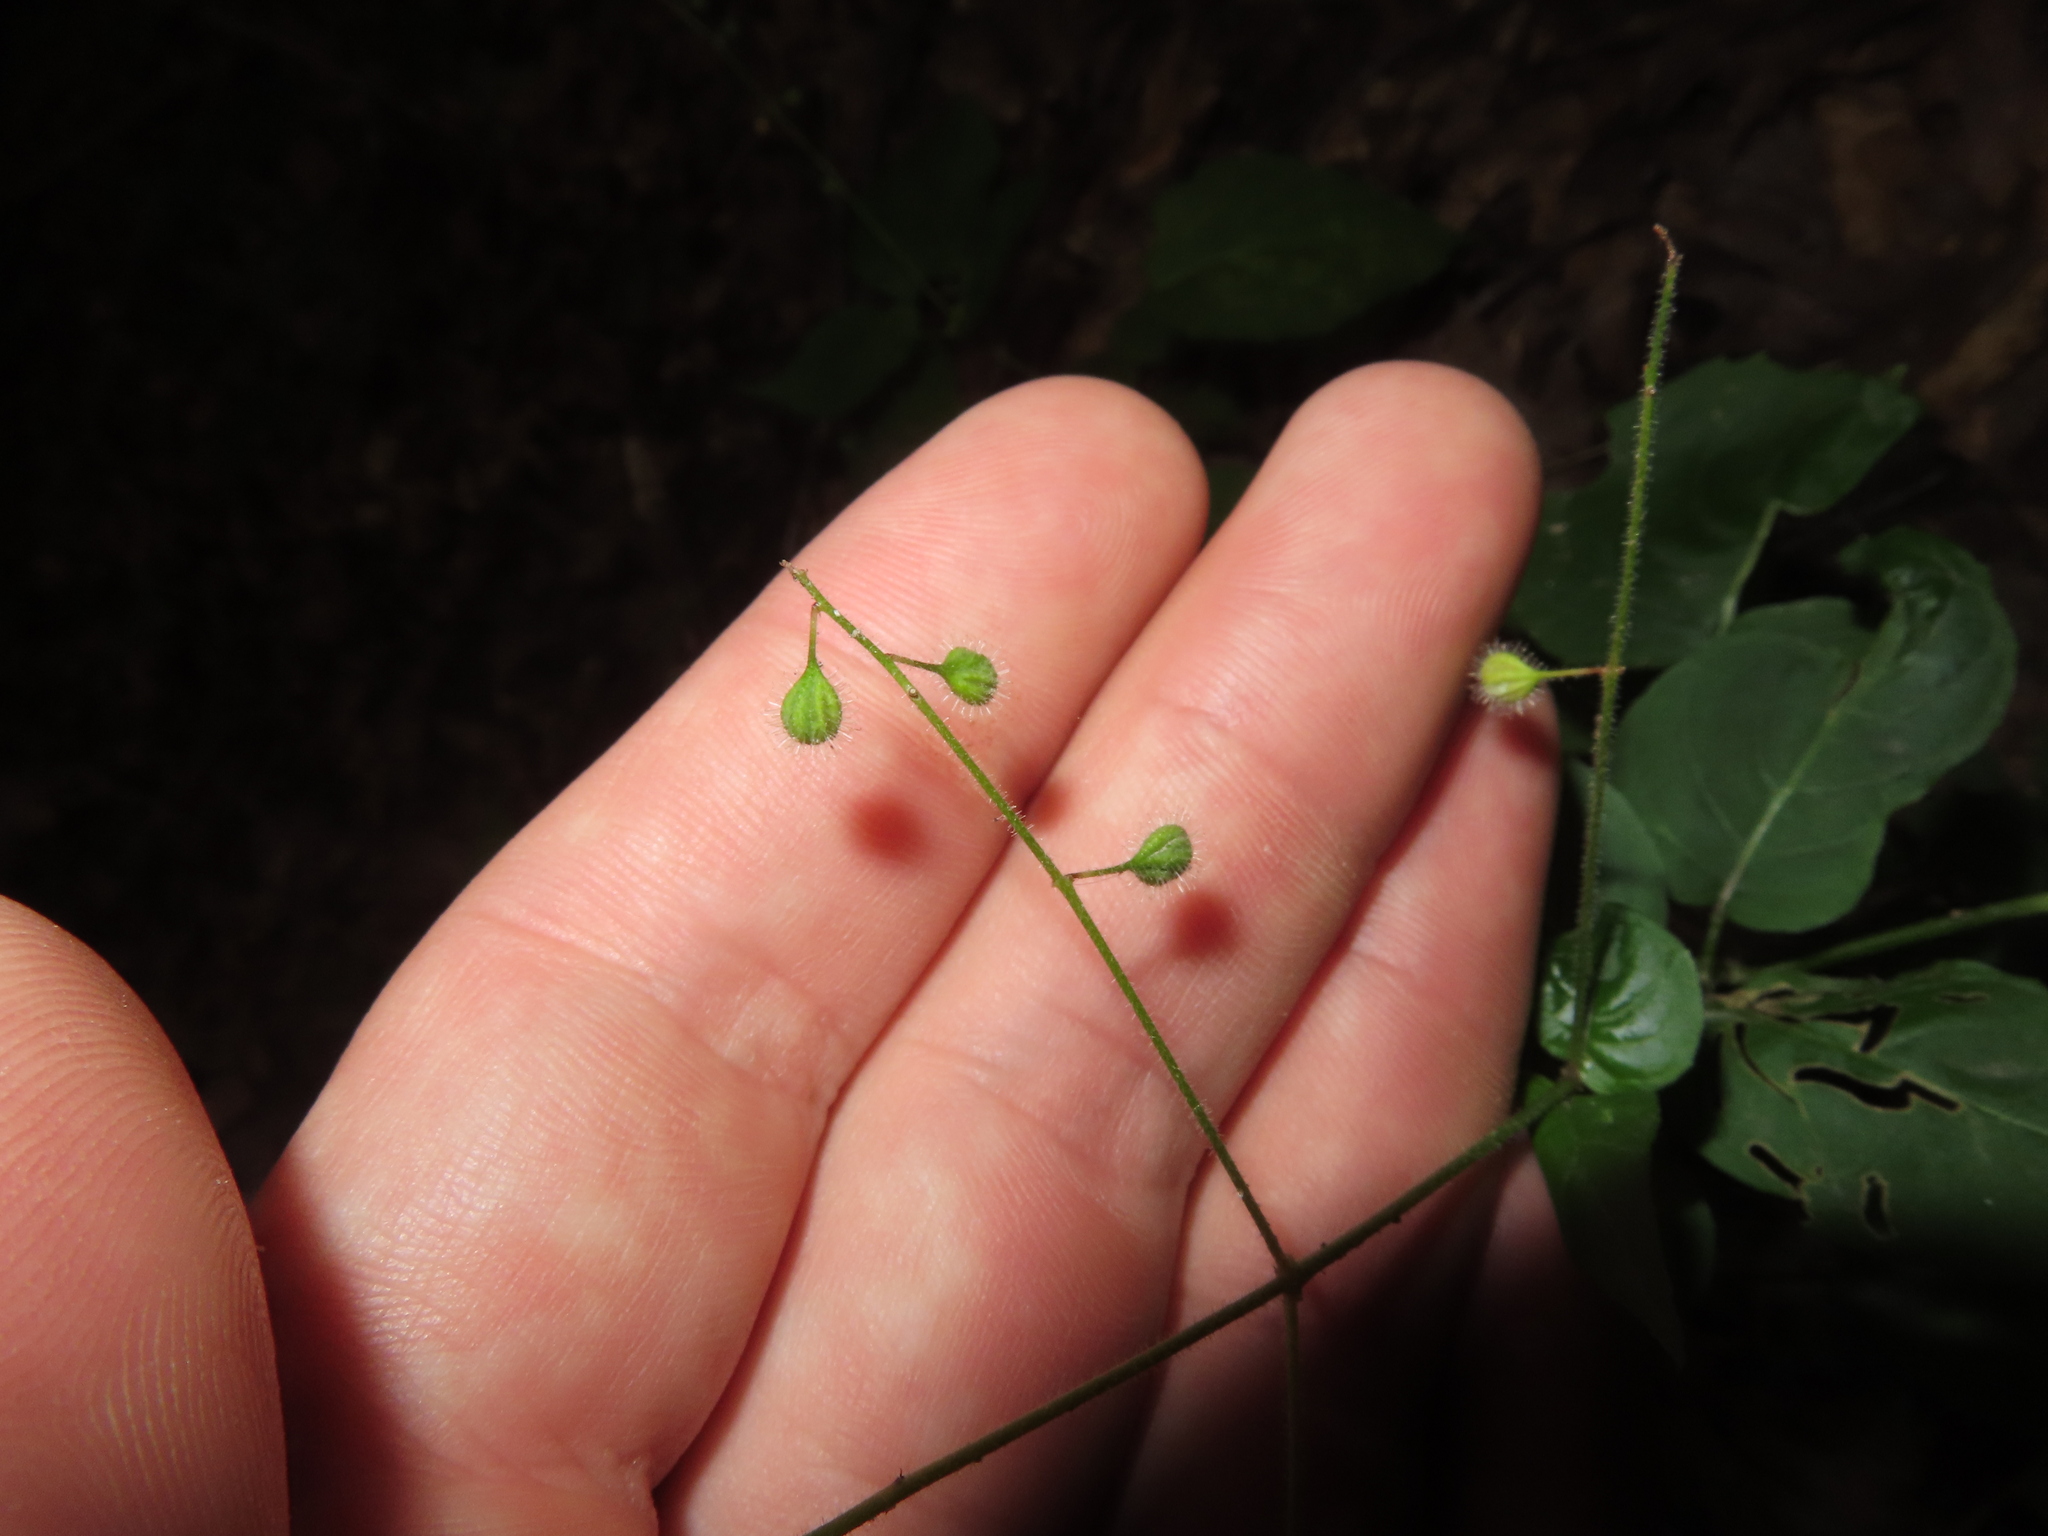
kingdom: Plantae
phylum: Tracheophyta
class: Magnoliopsida
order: Myrtales
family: Onagraceae
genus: Circaea
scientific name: Circaea canadensis
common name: Broad-leaved enchanter's nightshade
